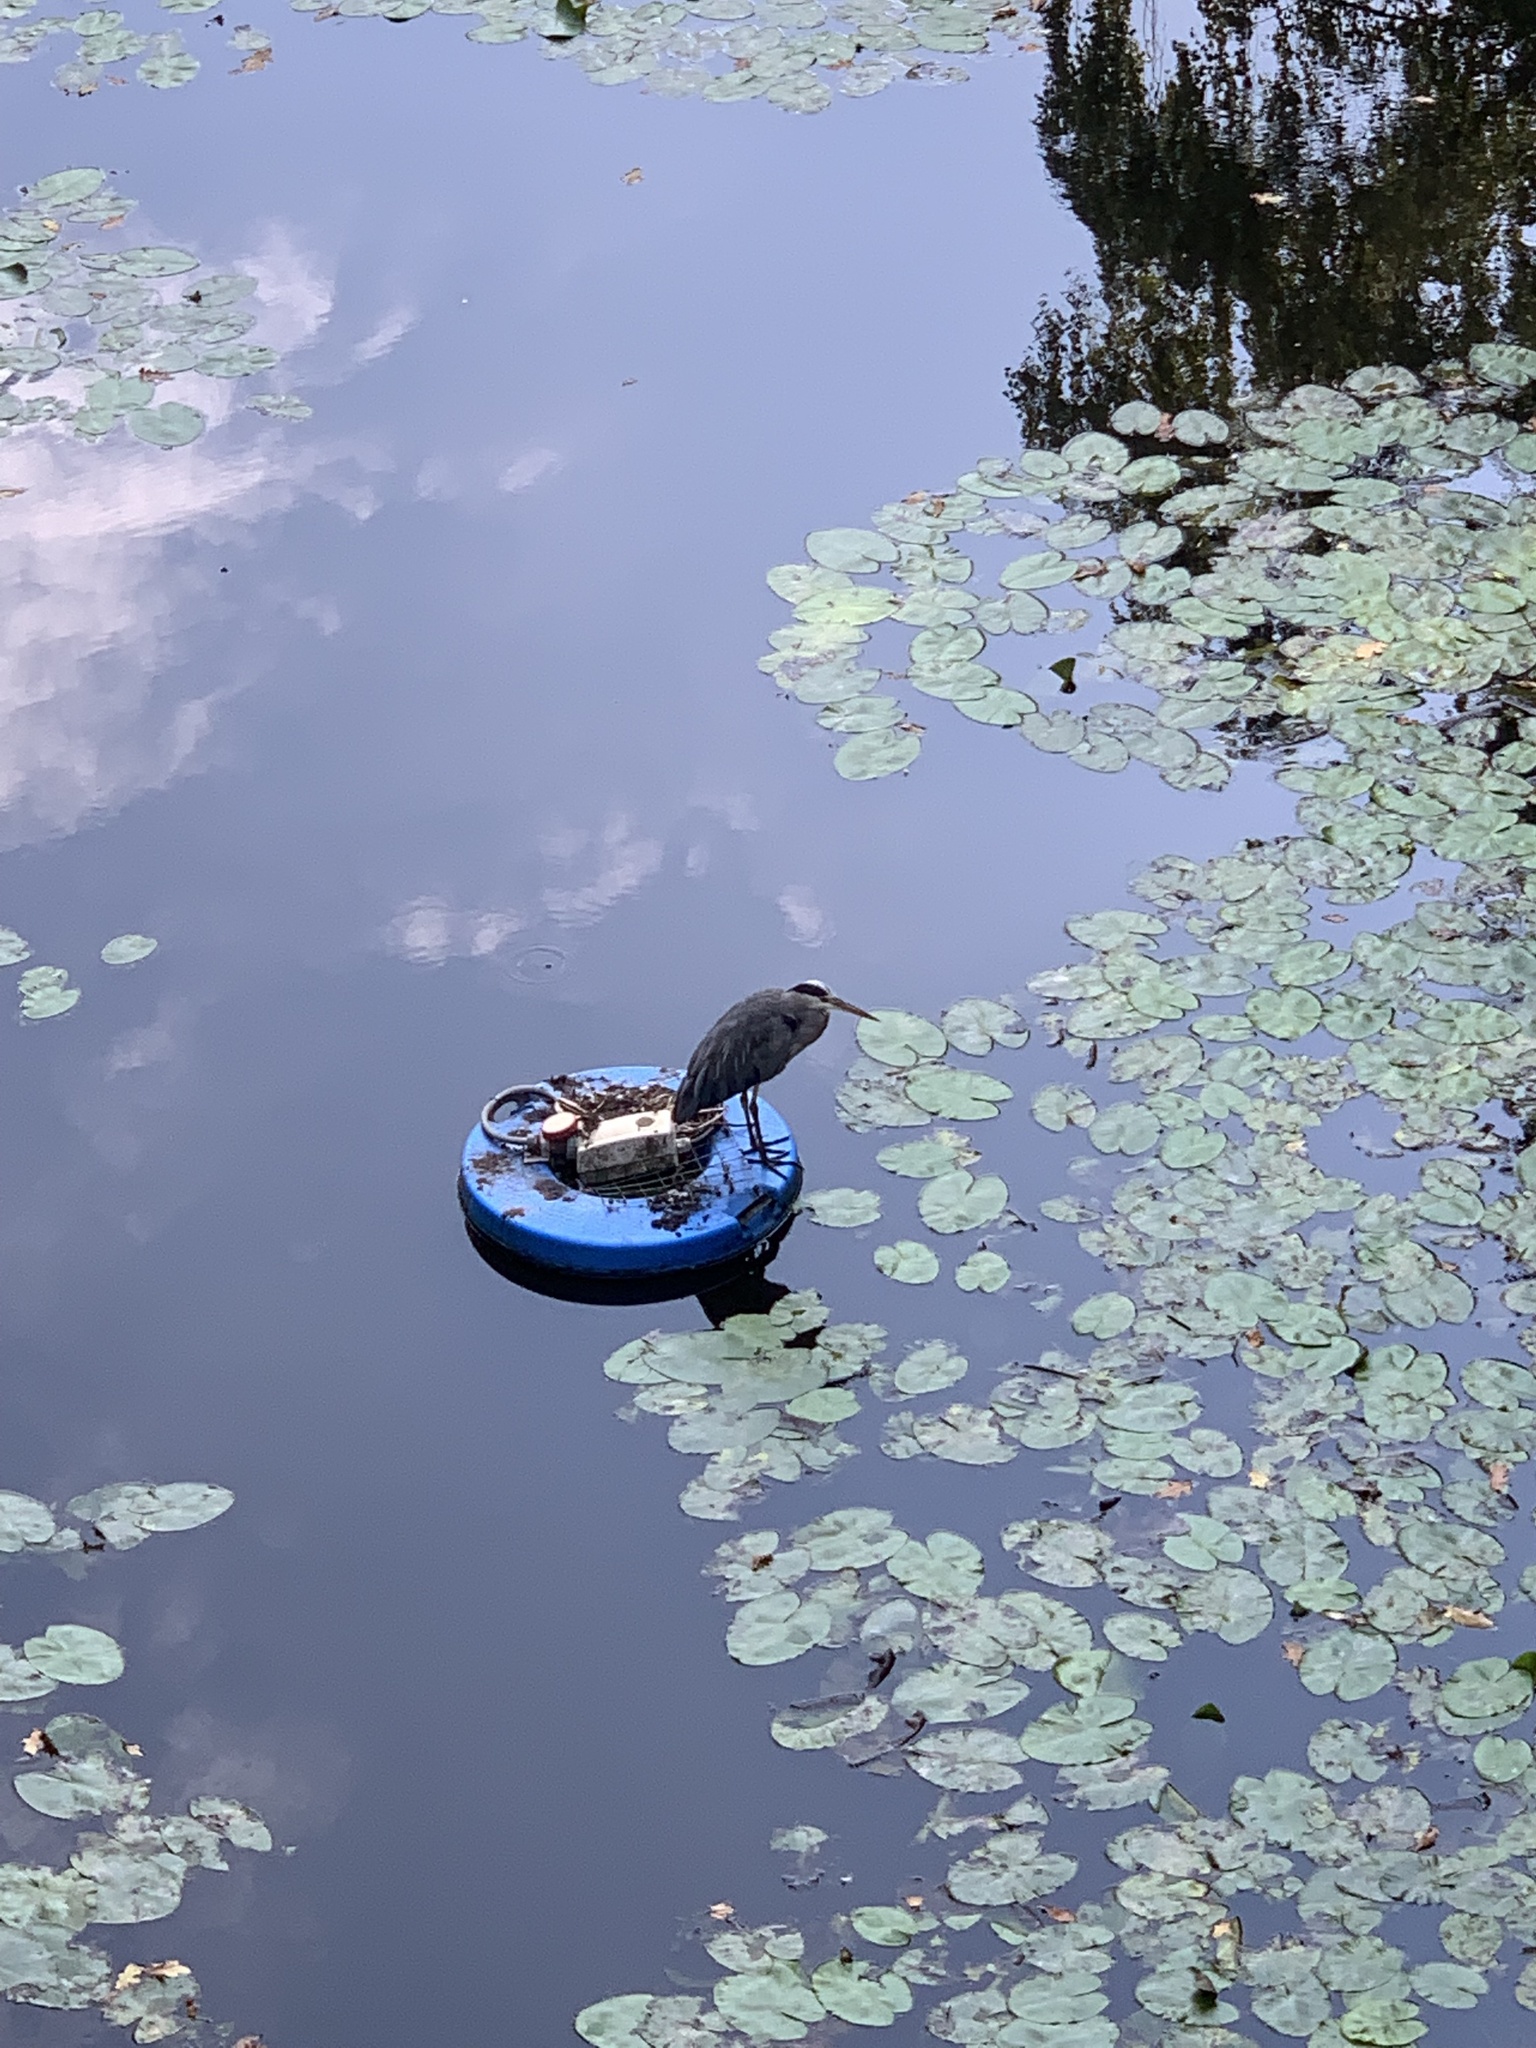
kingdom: Animalia
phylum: Chordata
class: Aves
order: Pelecaniformes
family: Ardeidae
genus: Ardea
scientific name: Ardea cinerea
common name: Grey heron
